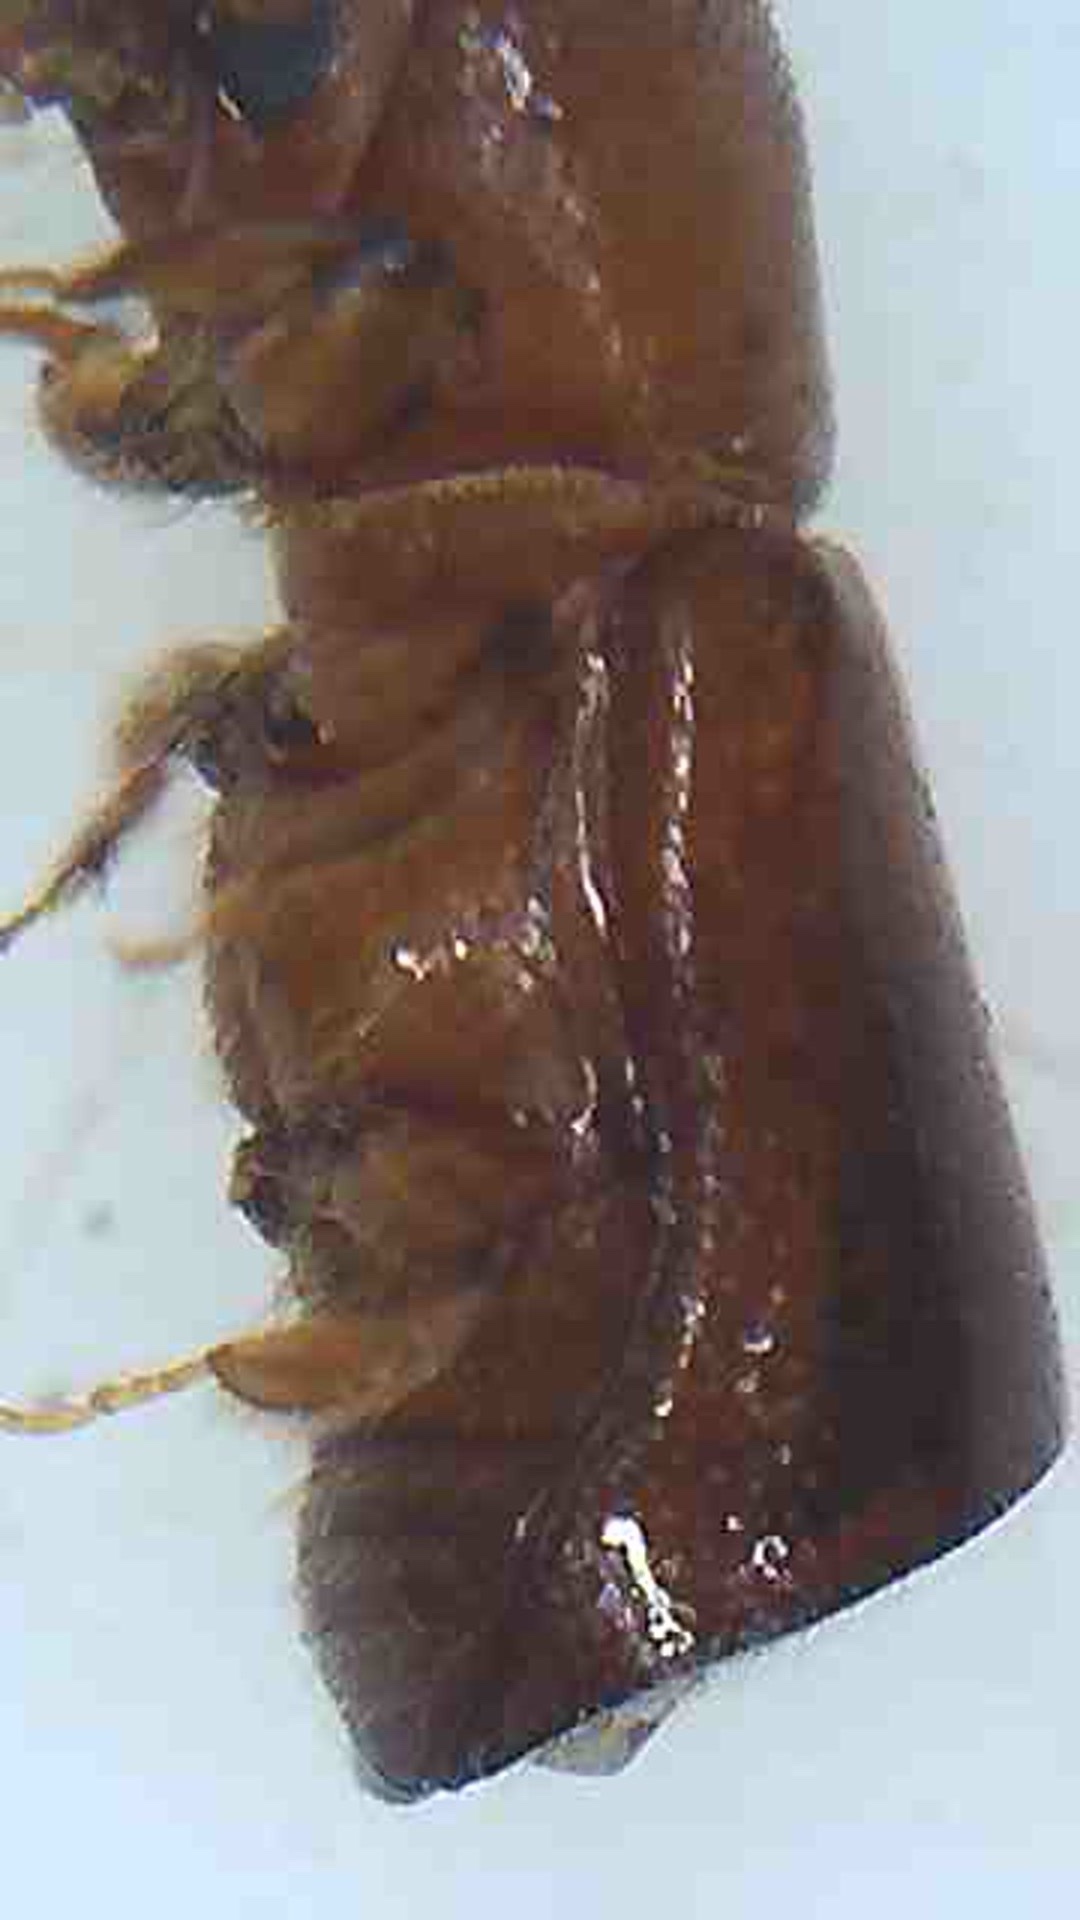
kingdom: Animalia
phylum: Arthropoda
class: Insecta
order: Coleoptera
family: Curculionidae
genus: Amasa
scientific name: Amasa truncatus
